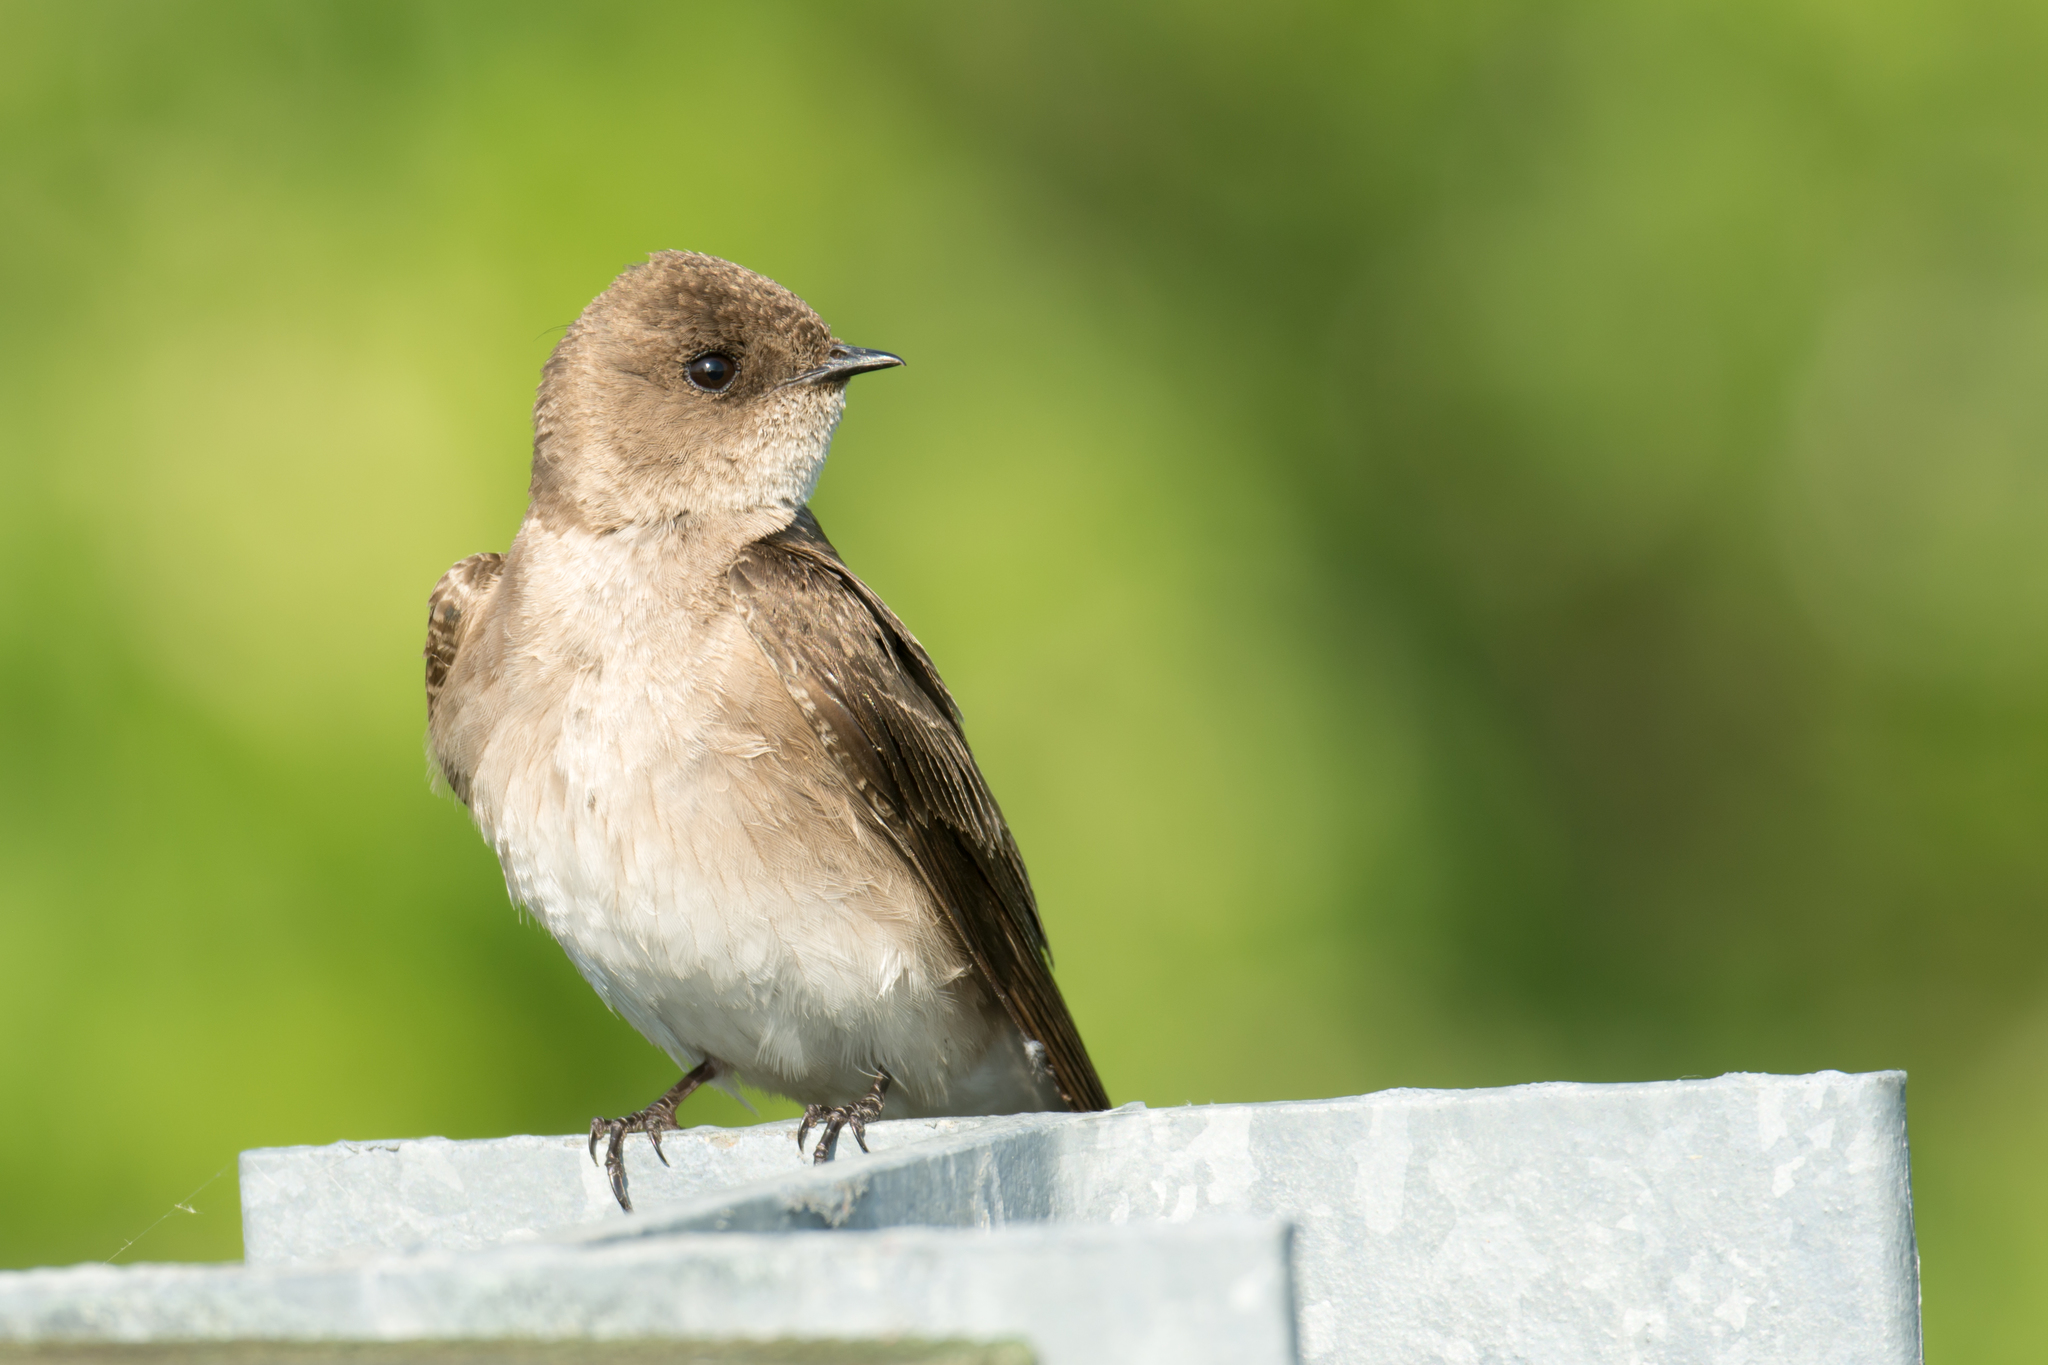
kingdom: Animalia
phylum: Chordata
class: Aves
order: Passeriformes
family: Hirundinidae
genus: Stelgidopteryx
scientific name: Stelgidopteryx serripennis
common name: Northern rough-winged swallow
